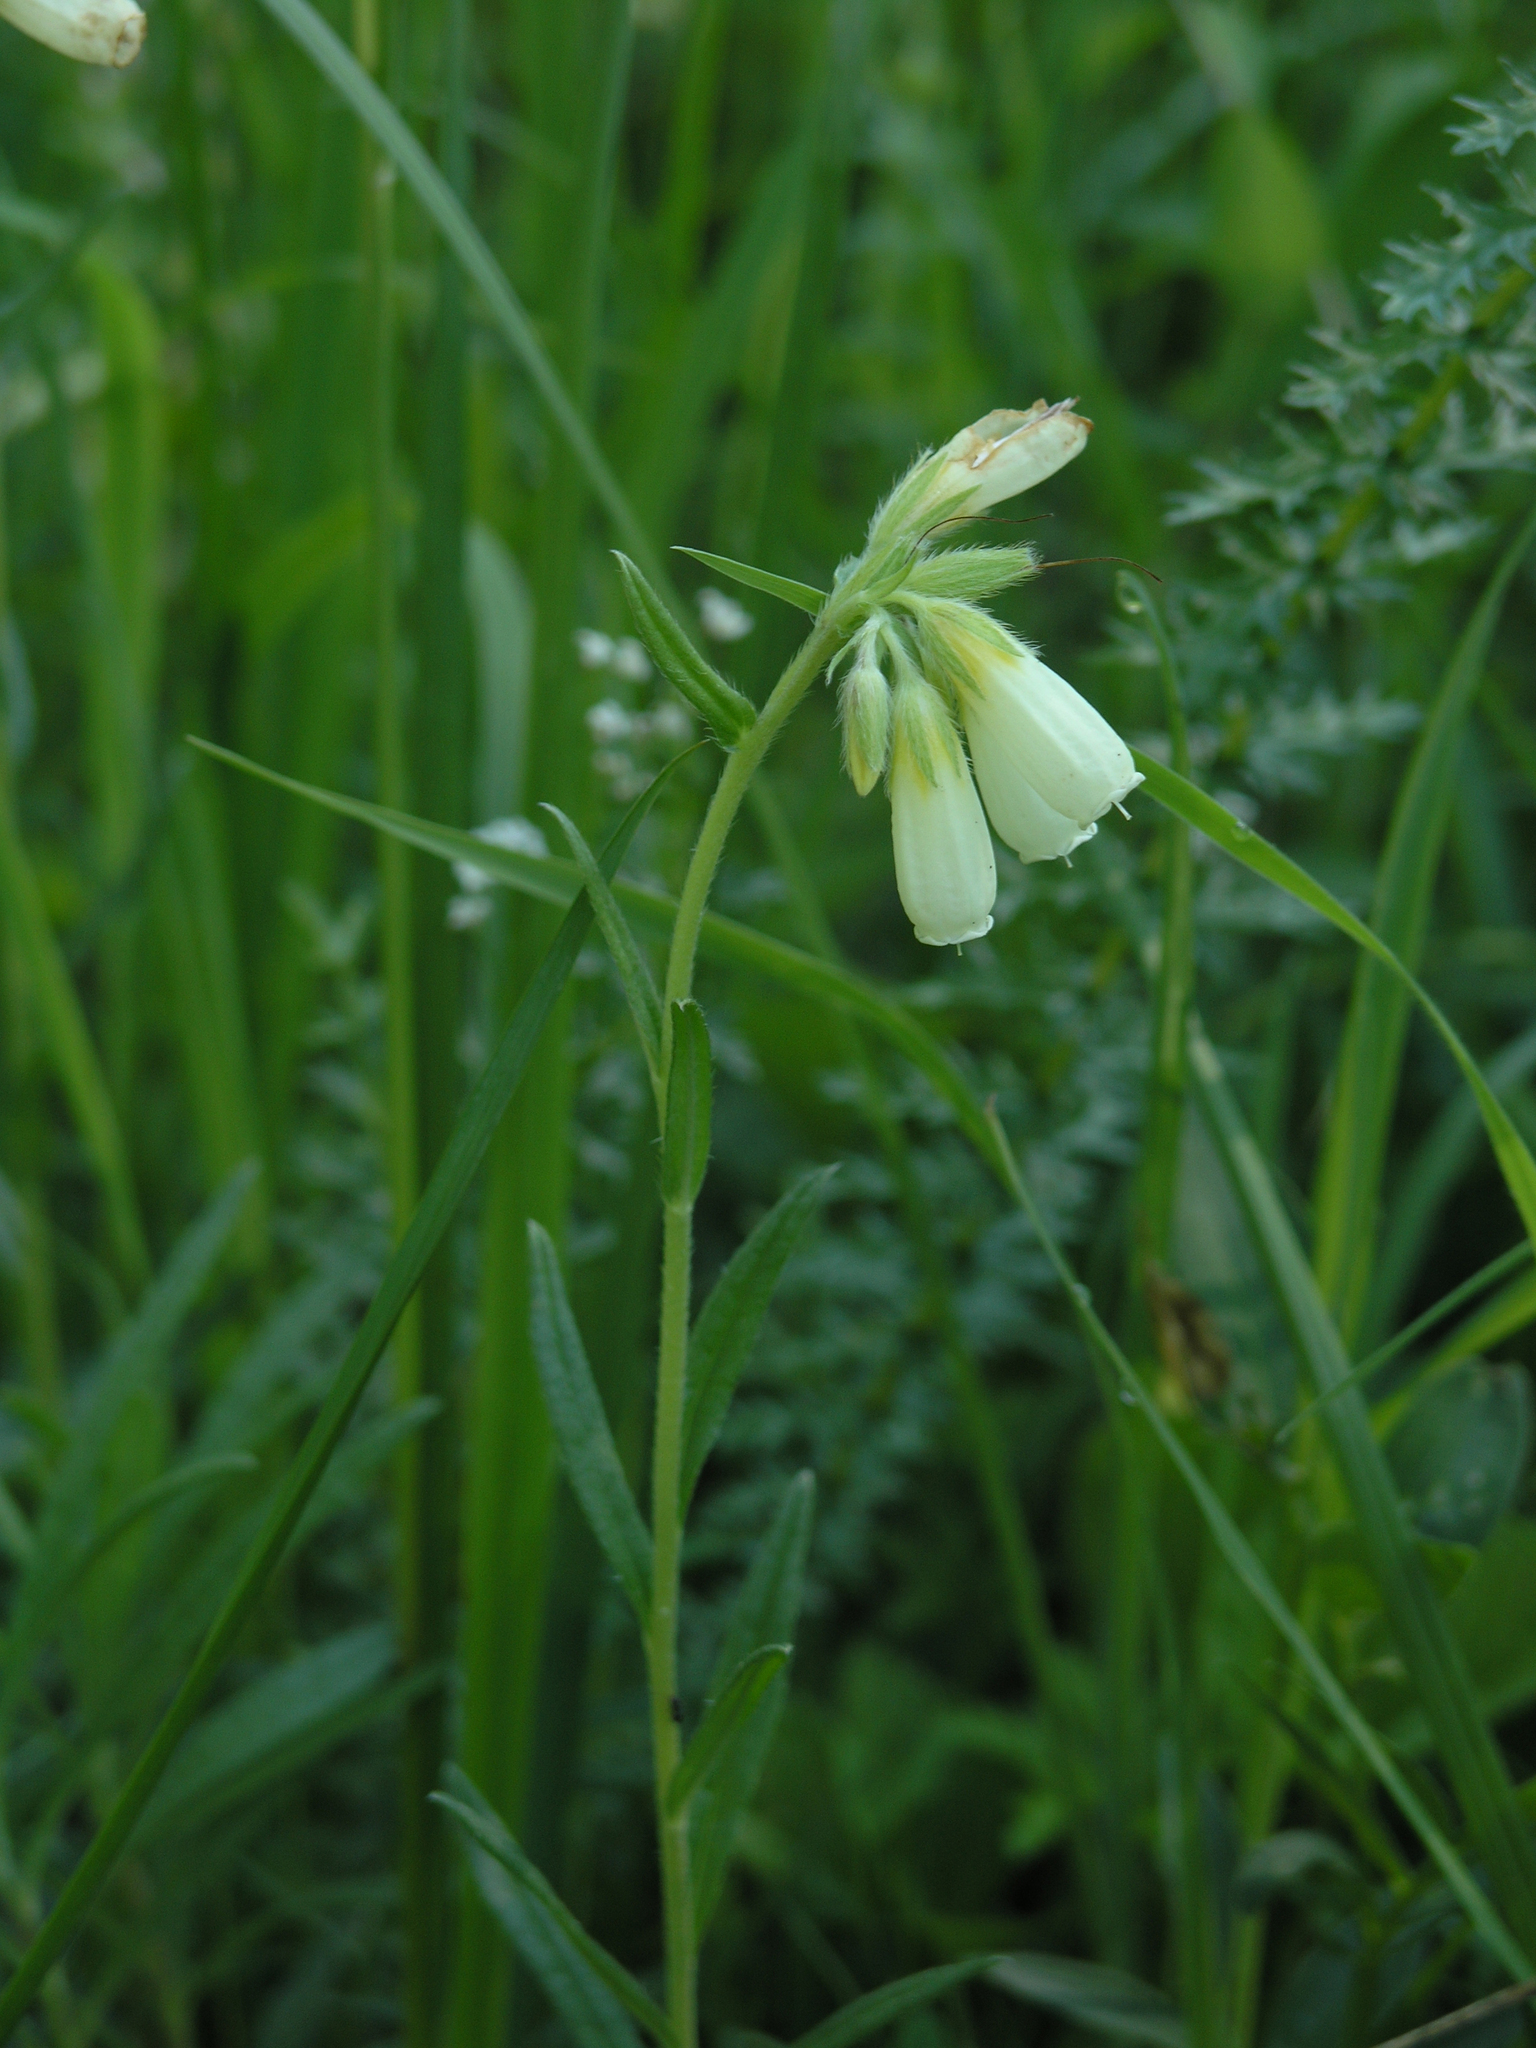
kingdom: Plantae
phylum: Tracheophyta
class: Magnoliopsida
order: Boraginales
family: Boraginaceae
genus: Onosma
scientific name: Onosma simplicissima
